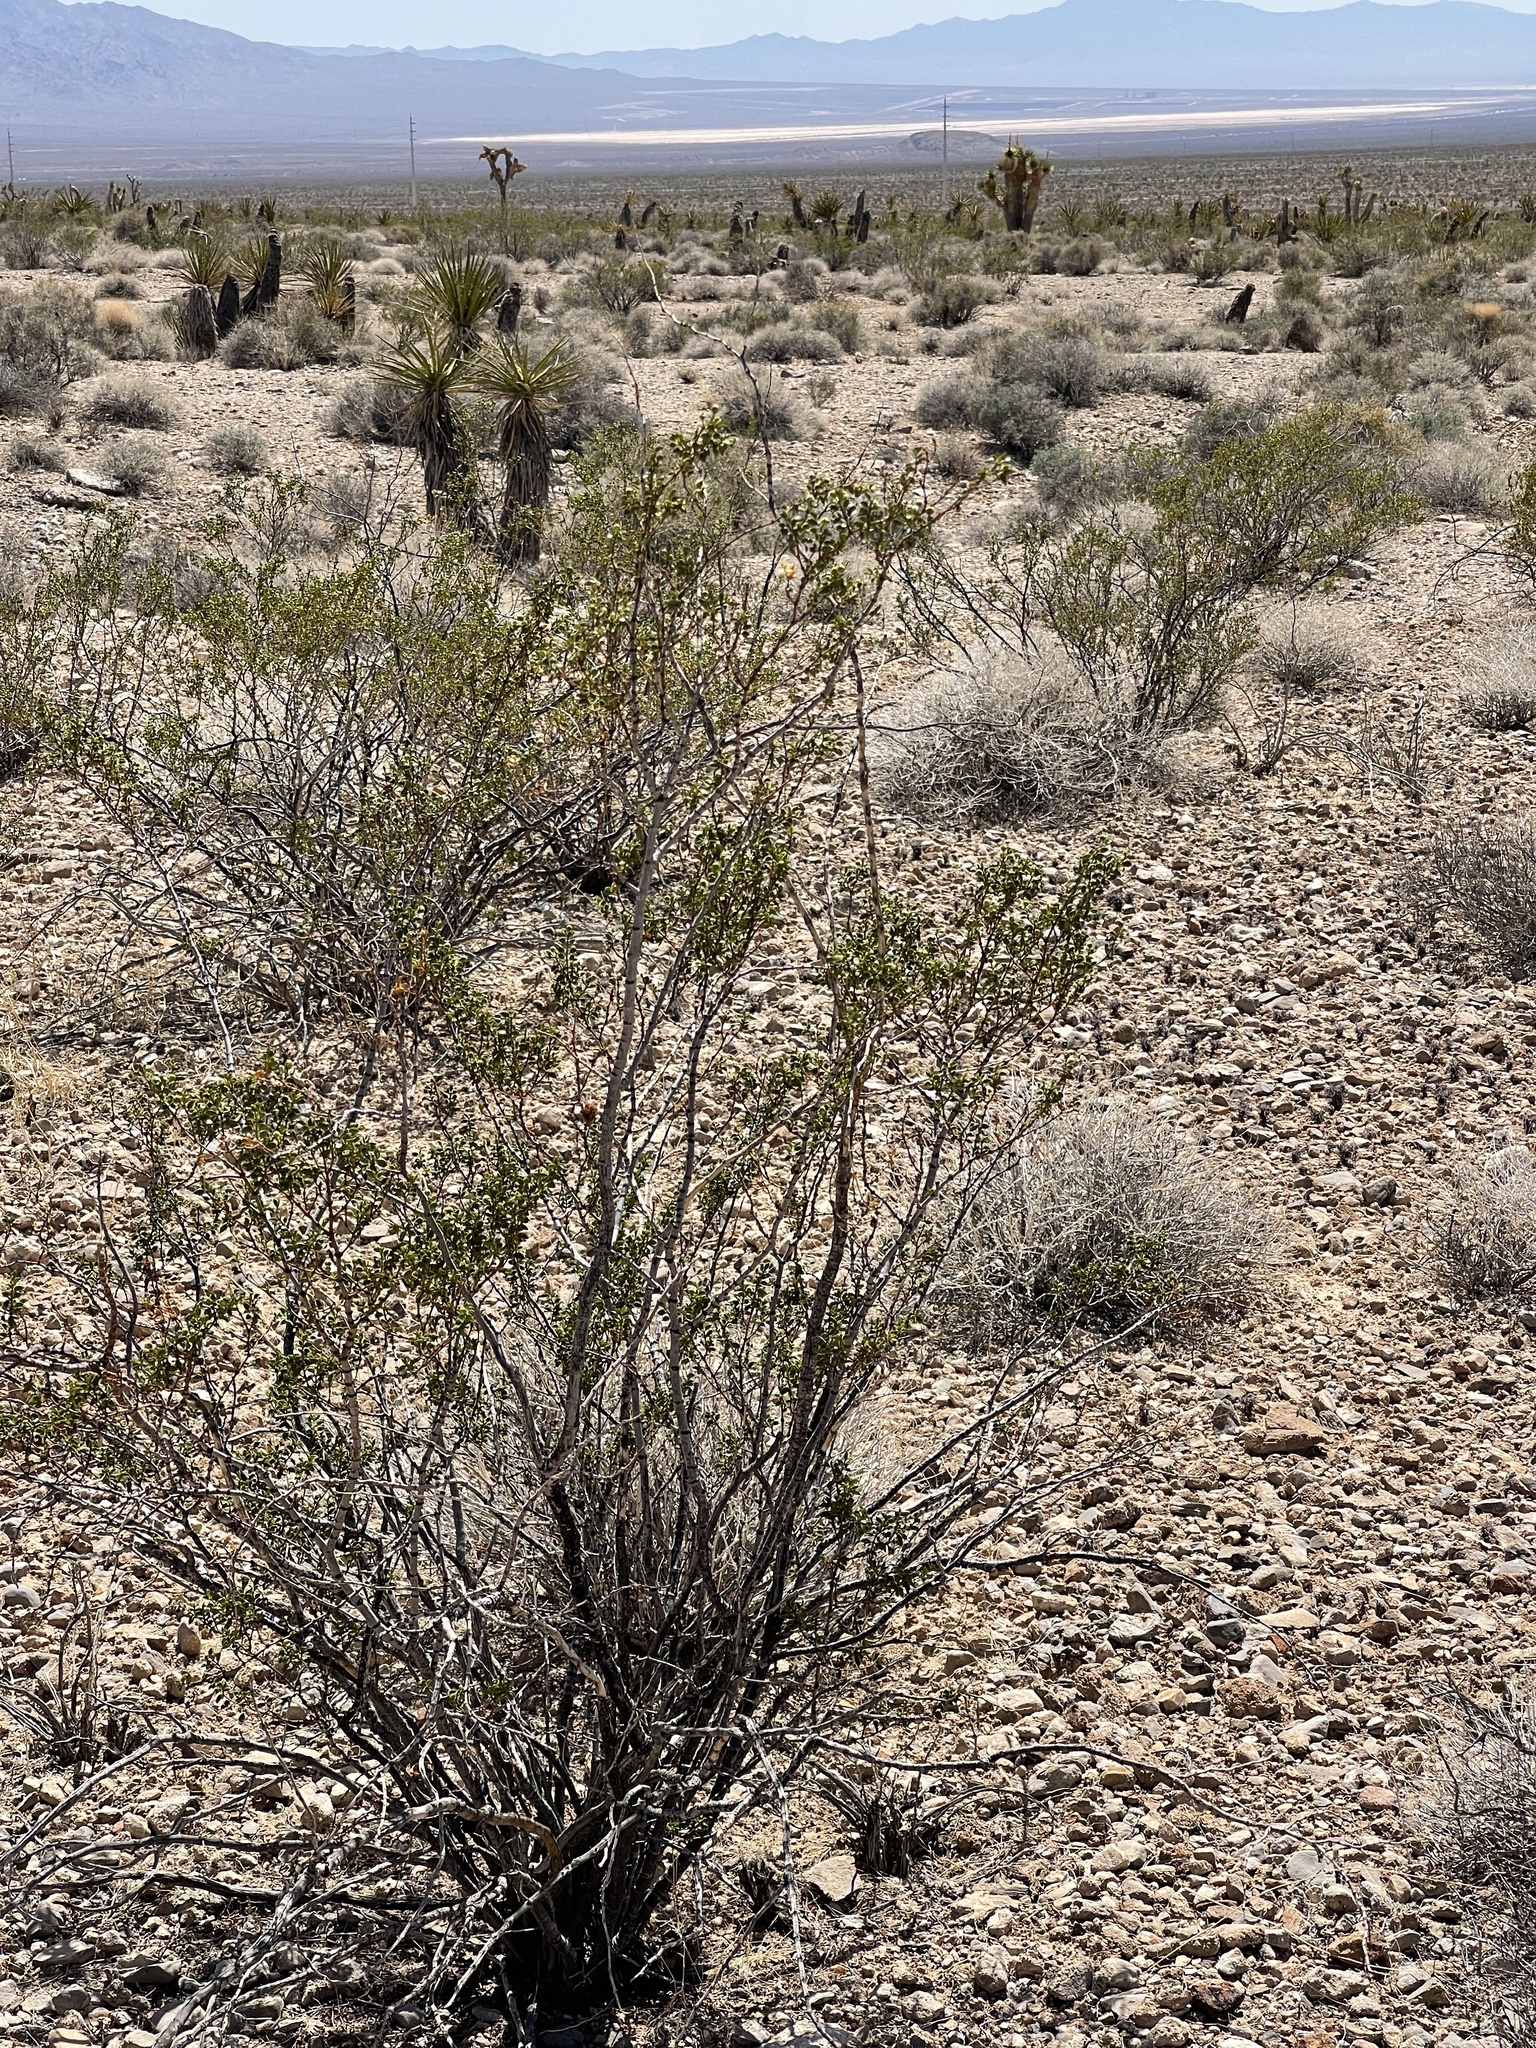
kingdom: Plantae
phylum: Tracheophyta
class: Magnoliopsida
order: Zygophyllales
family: Zygophyllaceae
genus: Larrea
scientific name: Larrea tridentata
